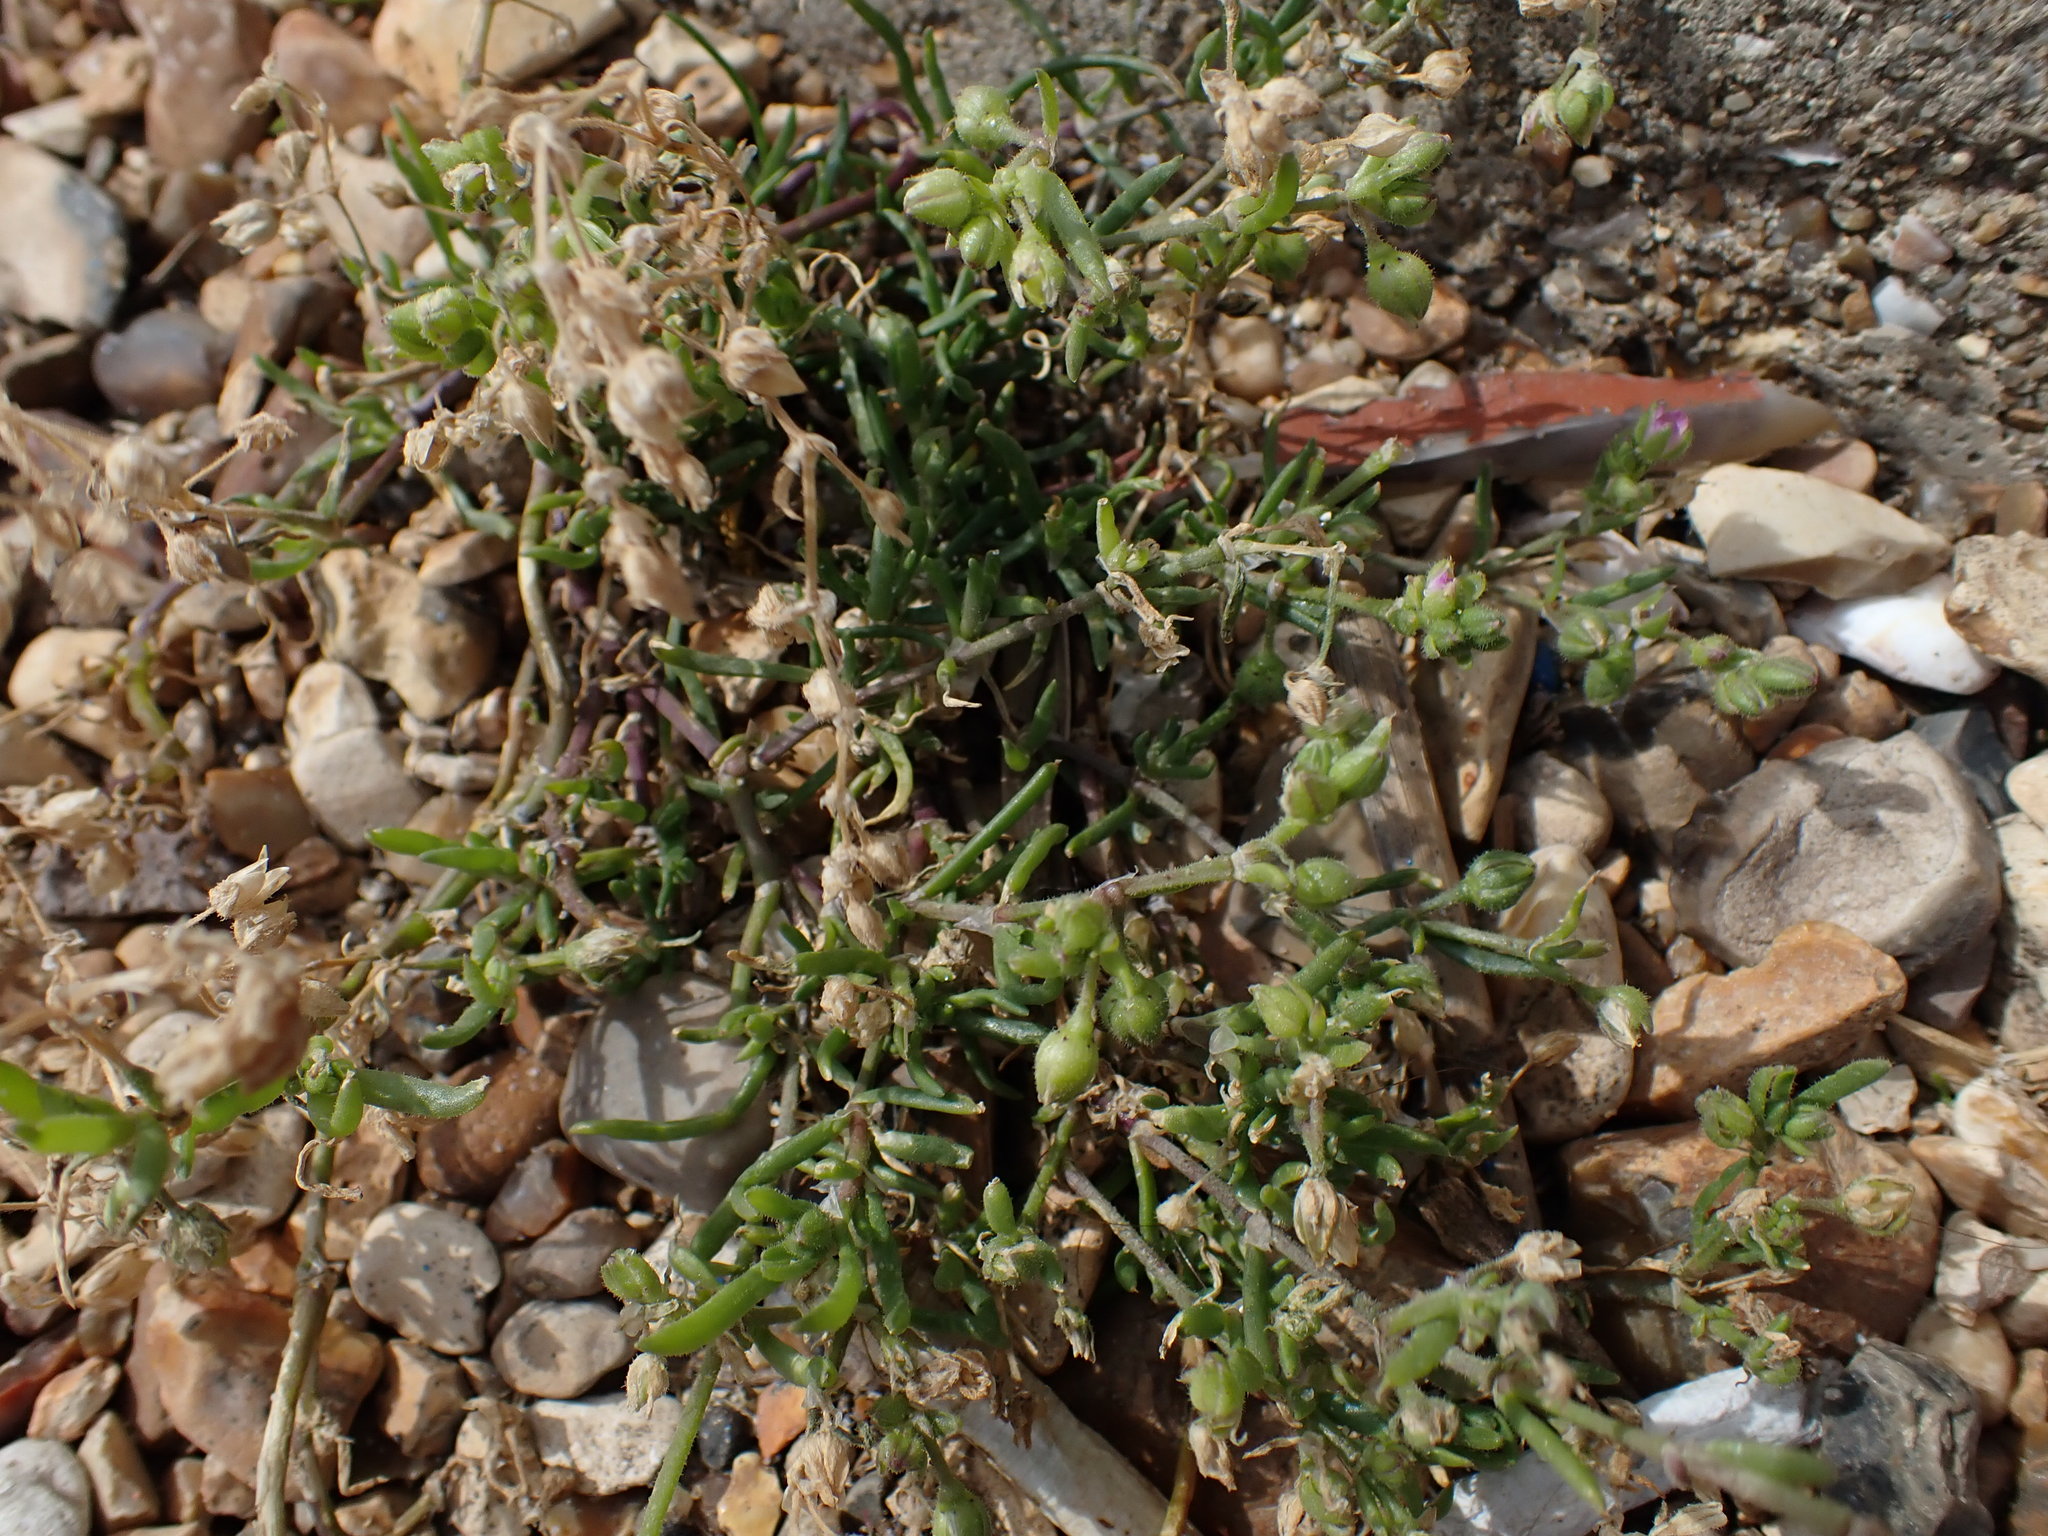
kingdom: Plantae
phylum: Tracheophyta
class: Magnoliopsida
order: Caryophyllales
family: Caryophyllaceae
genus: Spergularia
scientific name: Spergularia marina
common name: Lesser sea-spurrey
